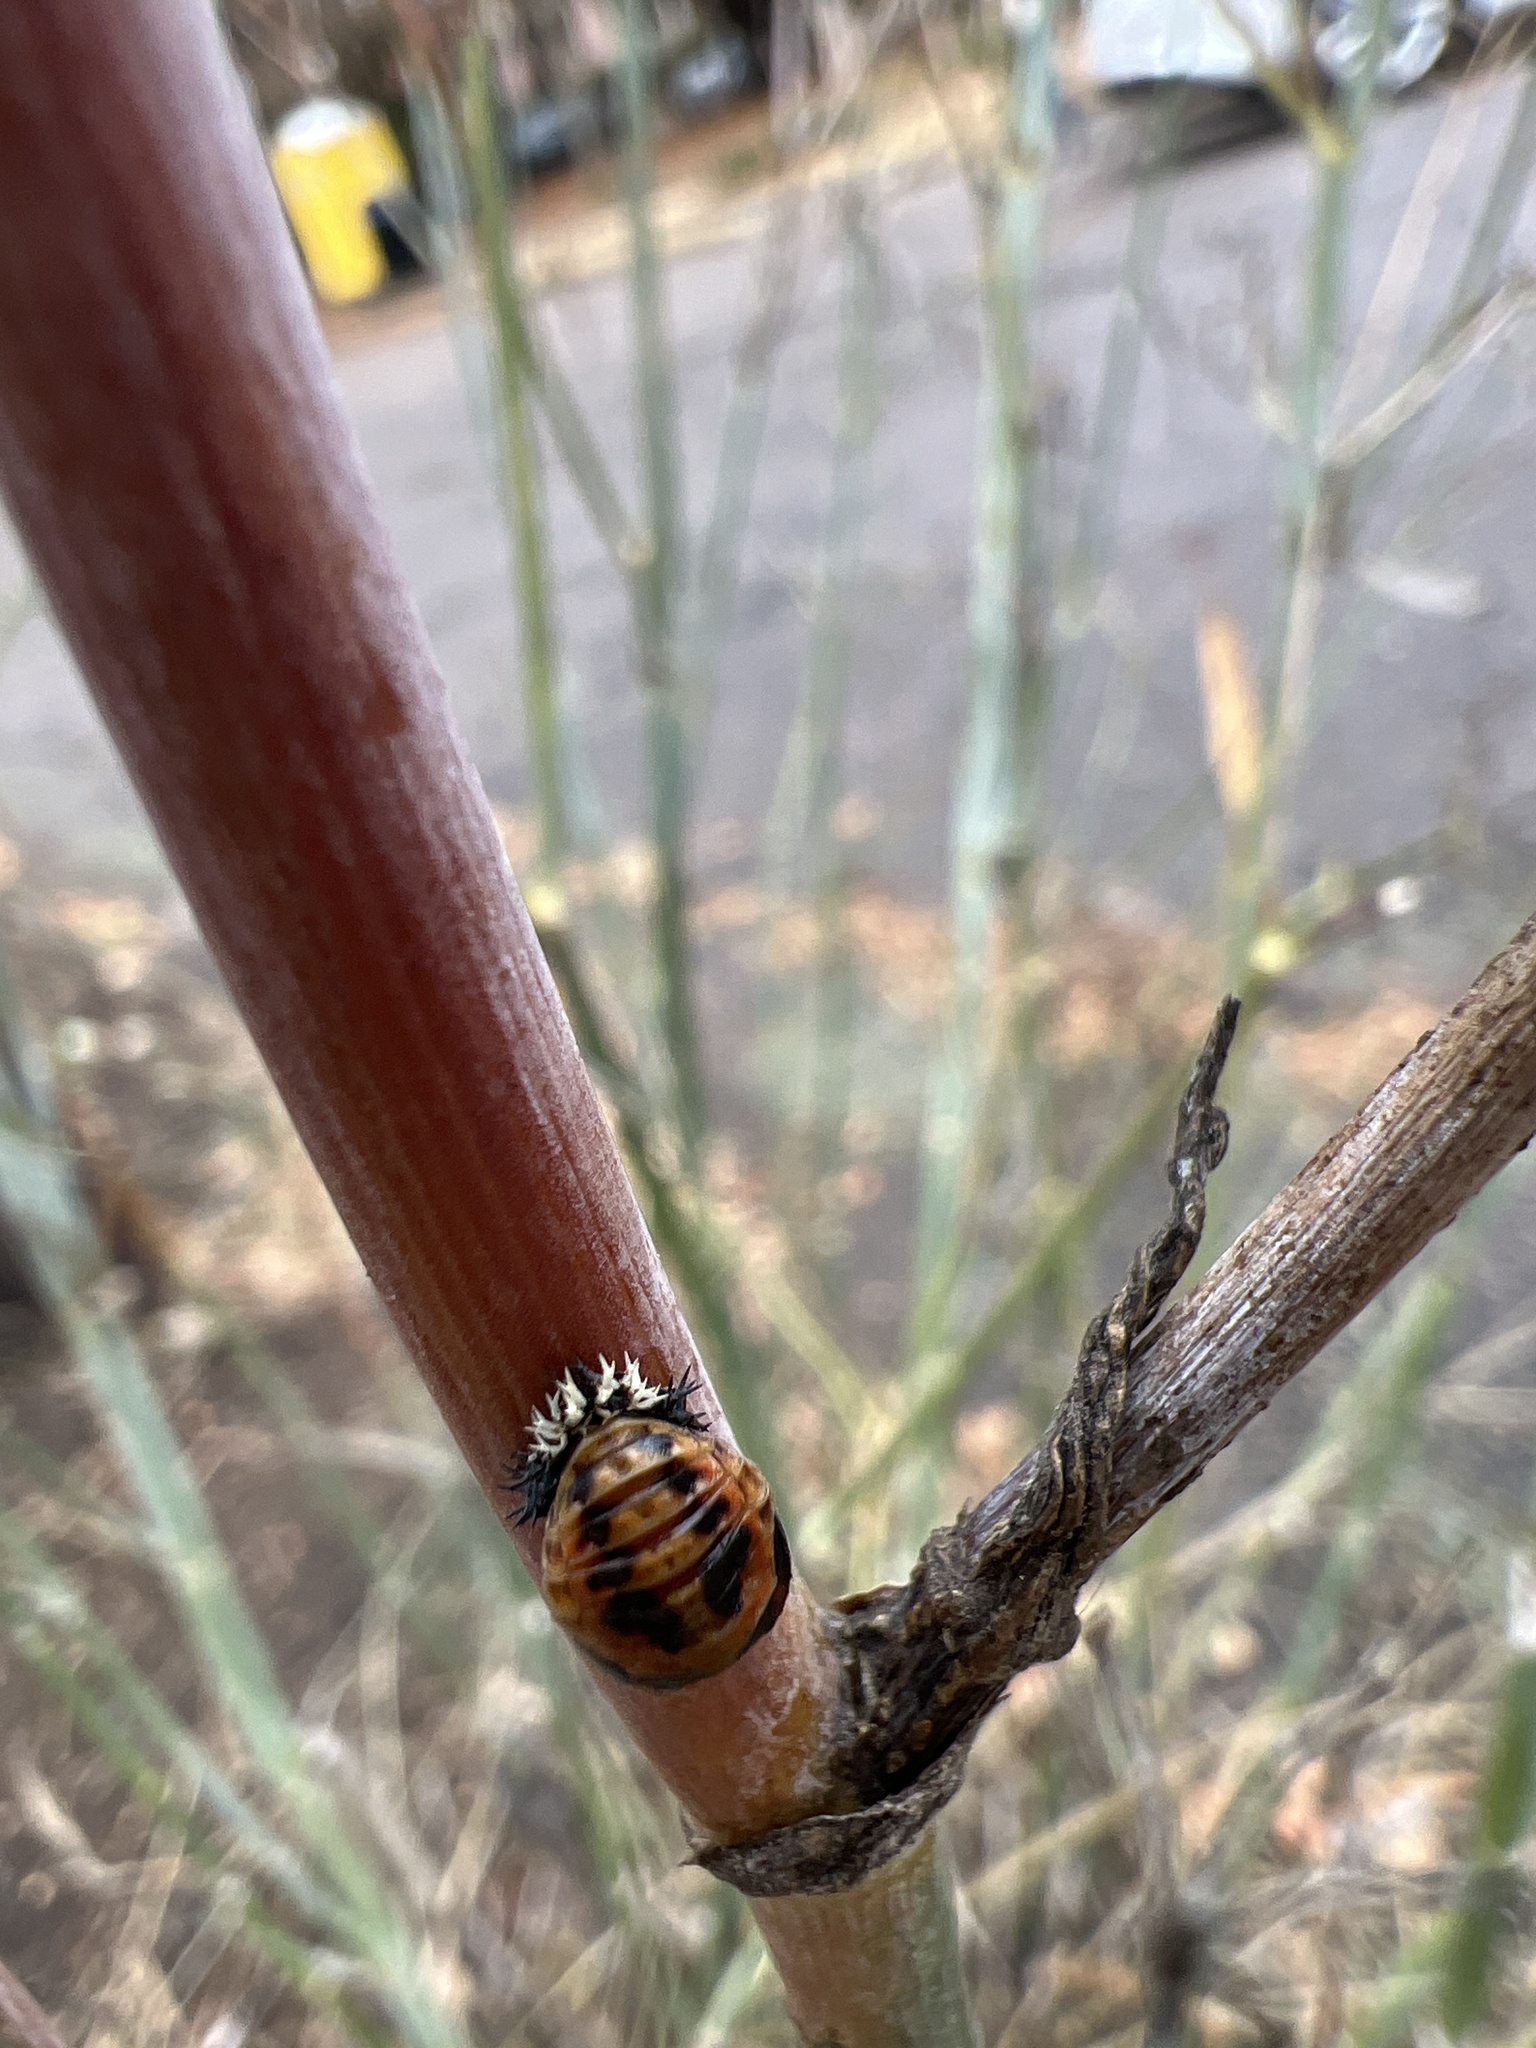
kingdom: Animalia
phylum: Arthropoda
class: Insecta
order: Coleoptera
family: Coccinellidae
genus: Harmonia
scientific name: Harmonia axyridis
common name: Harlequin ladybird
